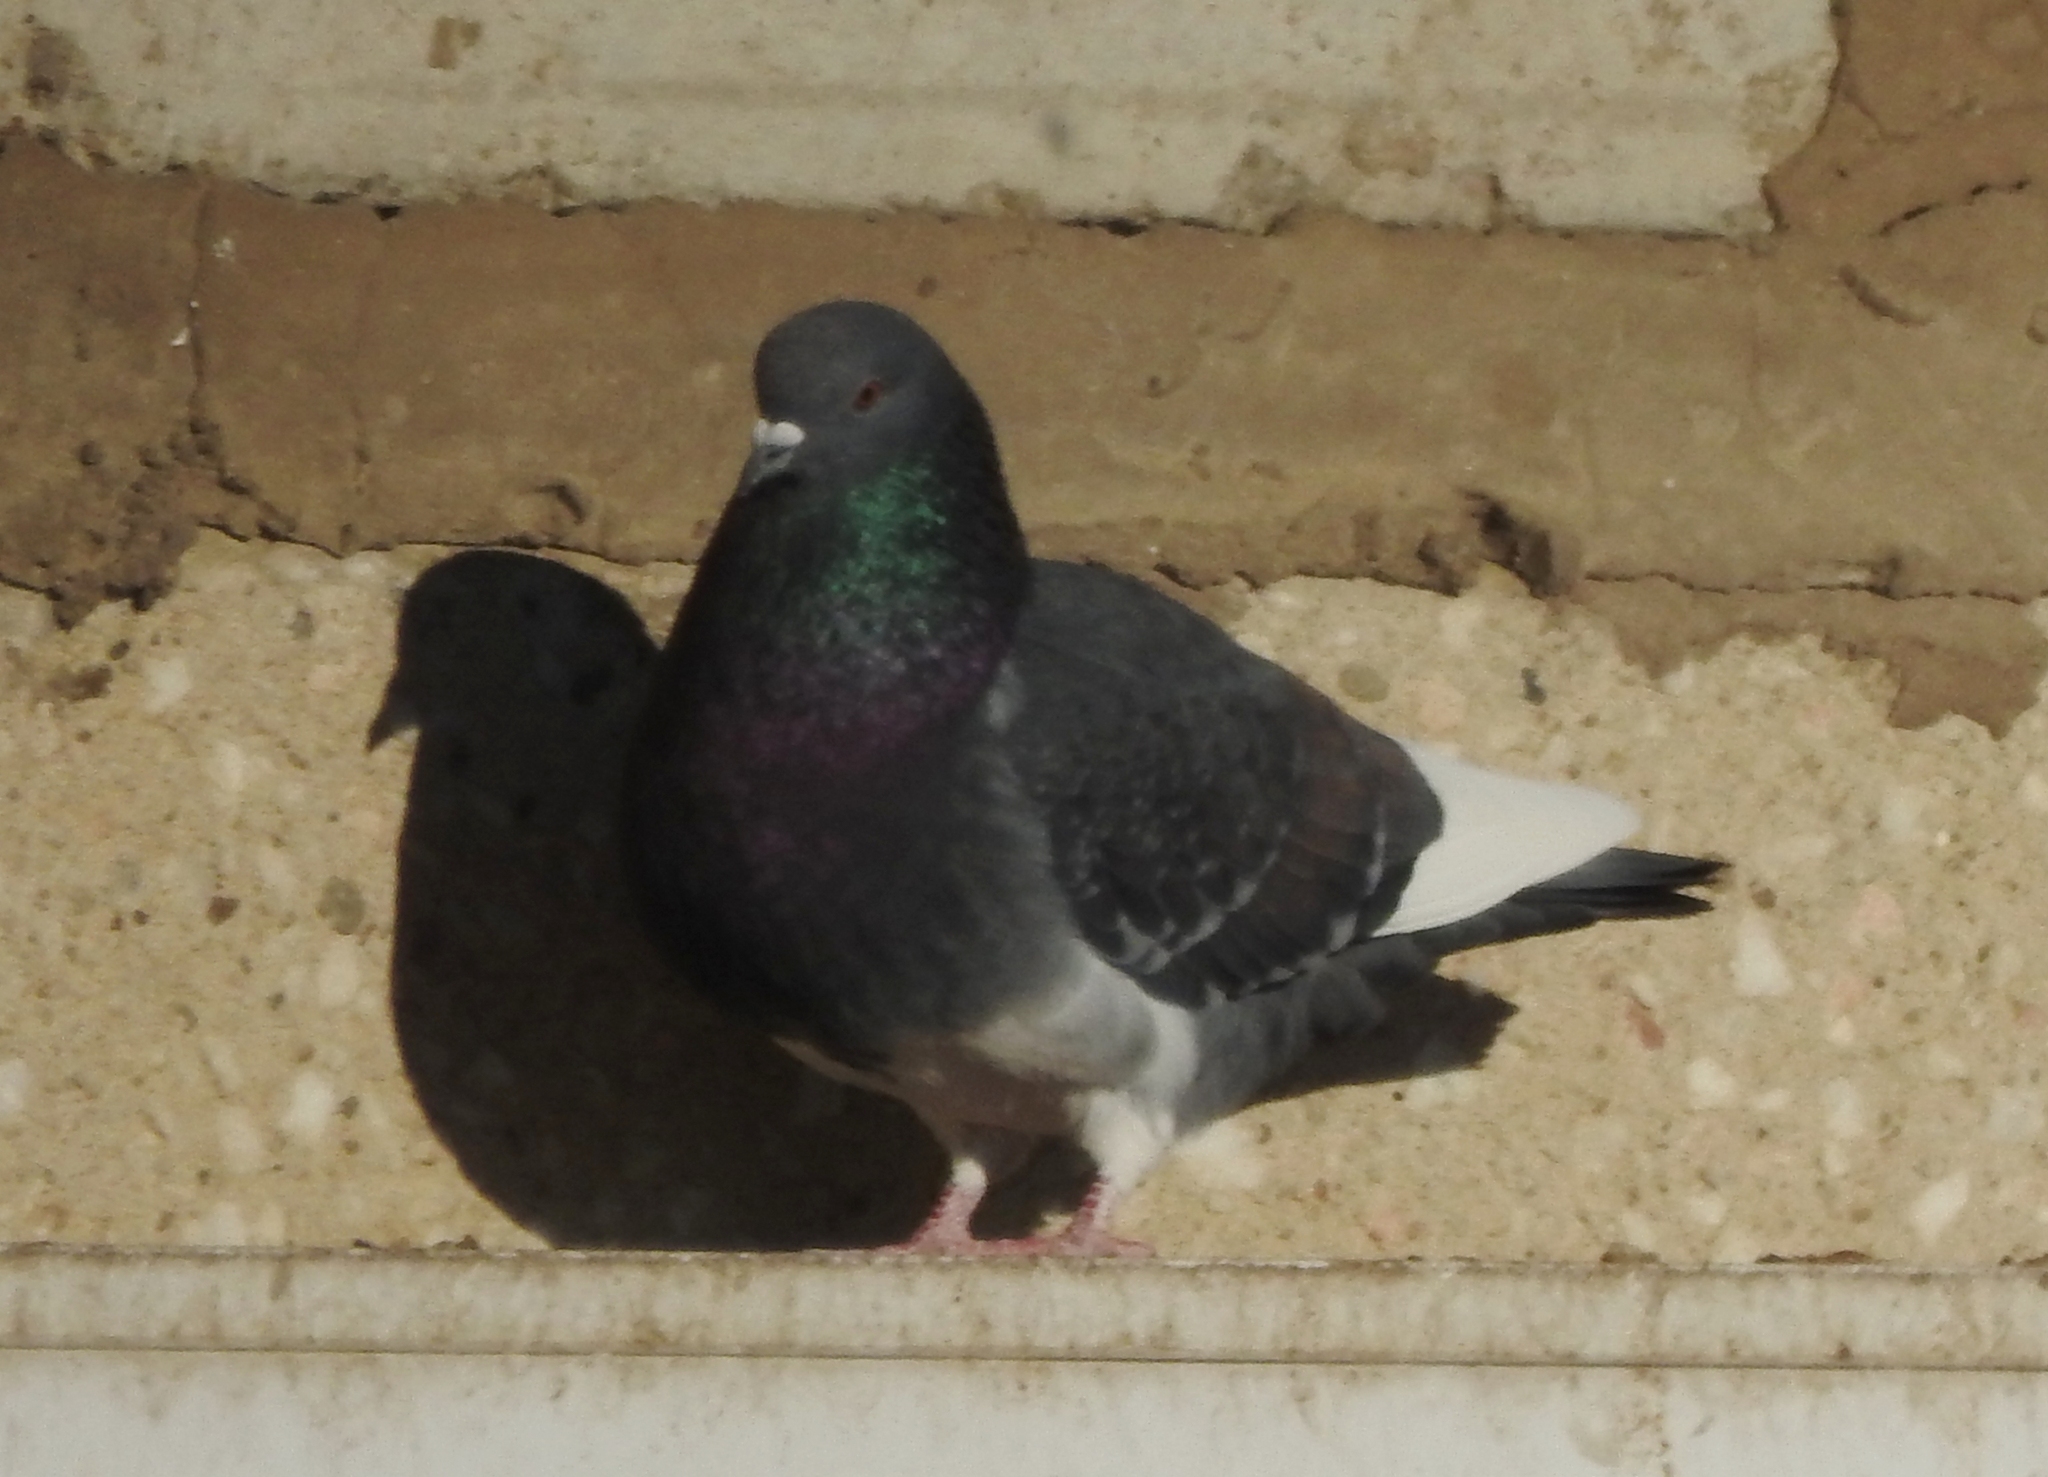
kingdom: Animalia
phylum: Chordata
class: Aves
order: Columbiformes
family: Columbidae
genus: Columba
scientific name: Columba livia
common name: Rock pigeon
